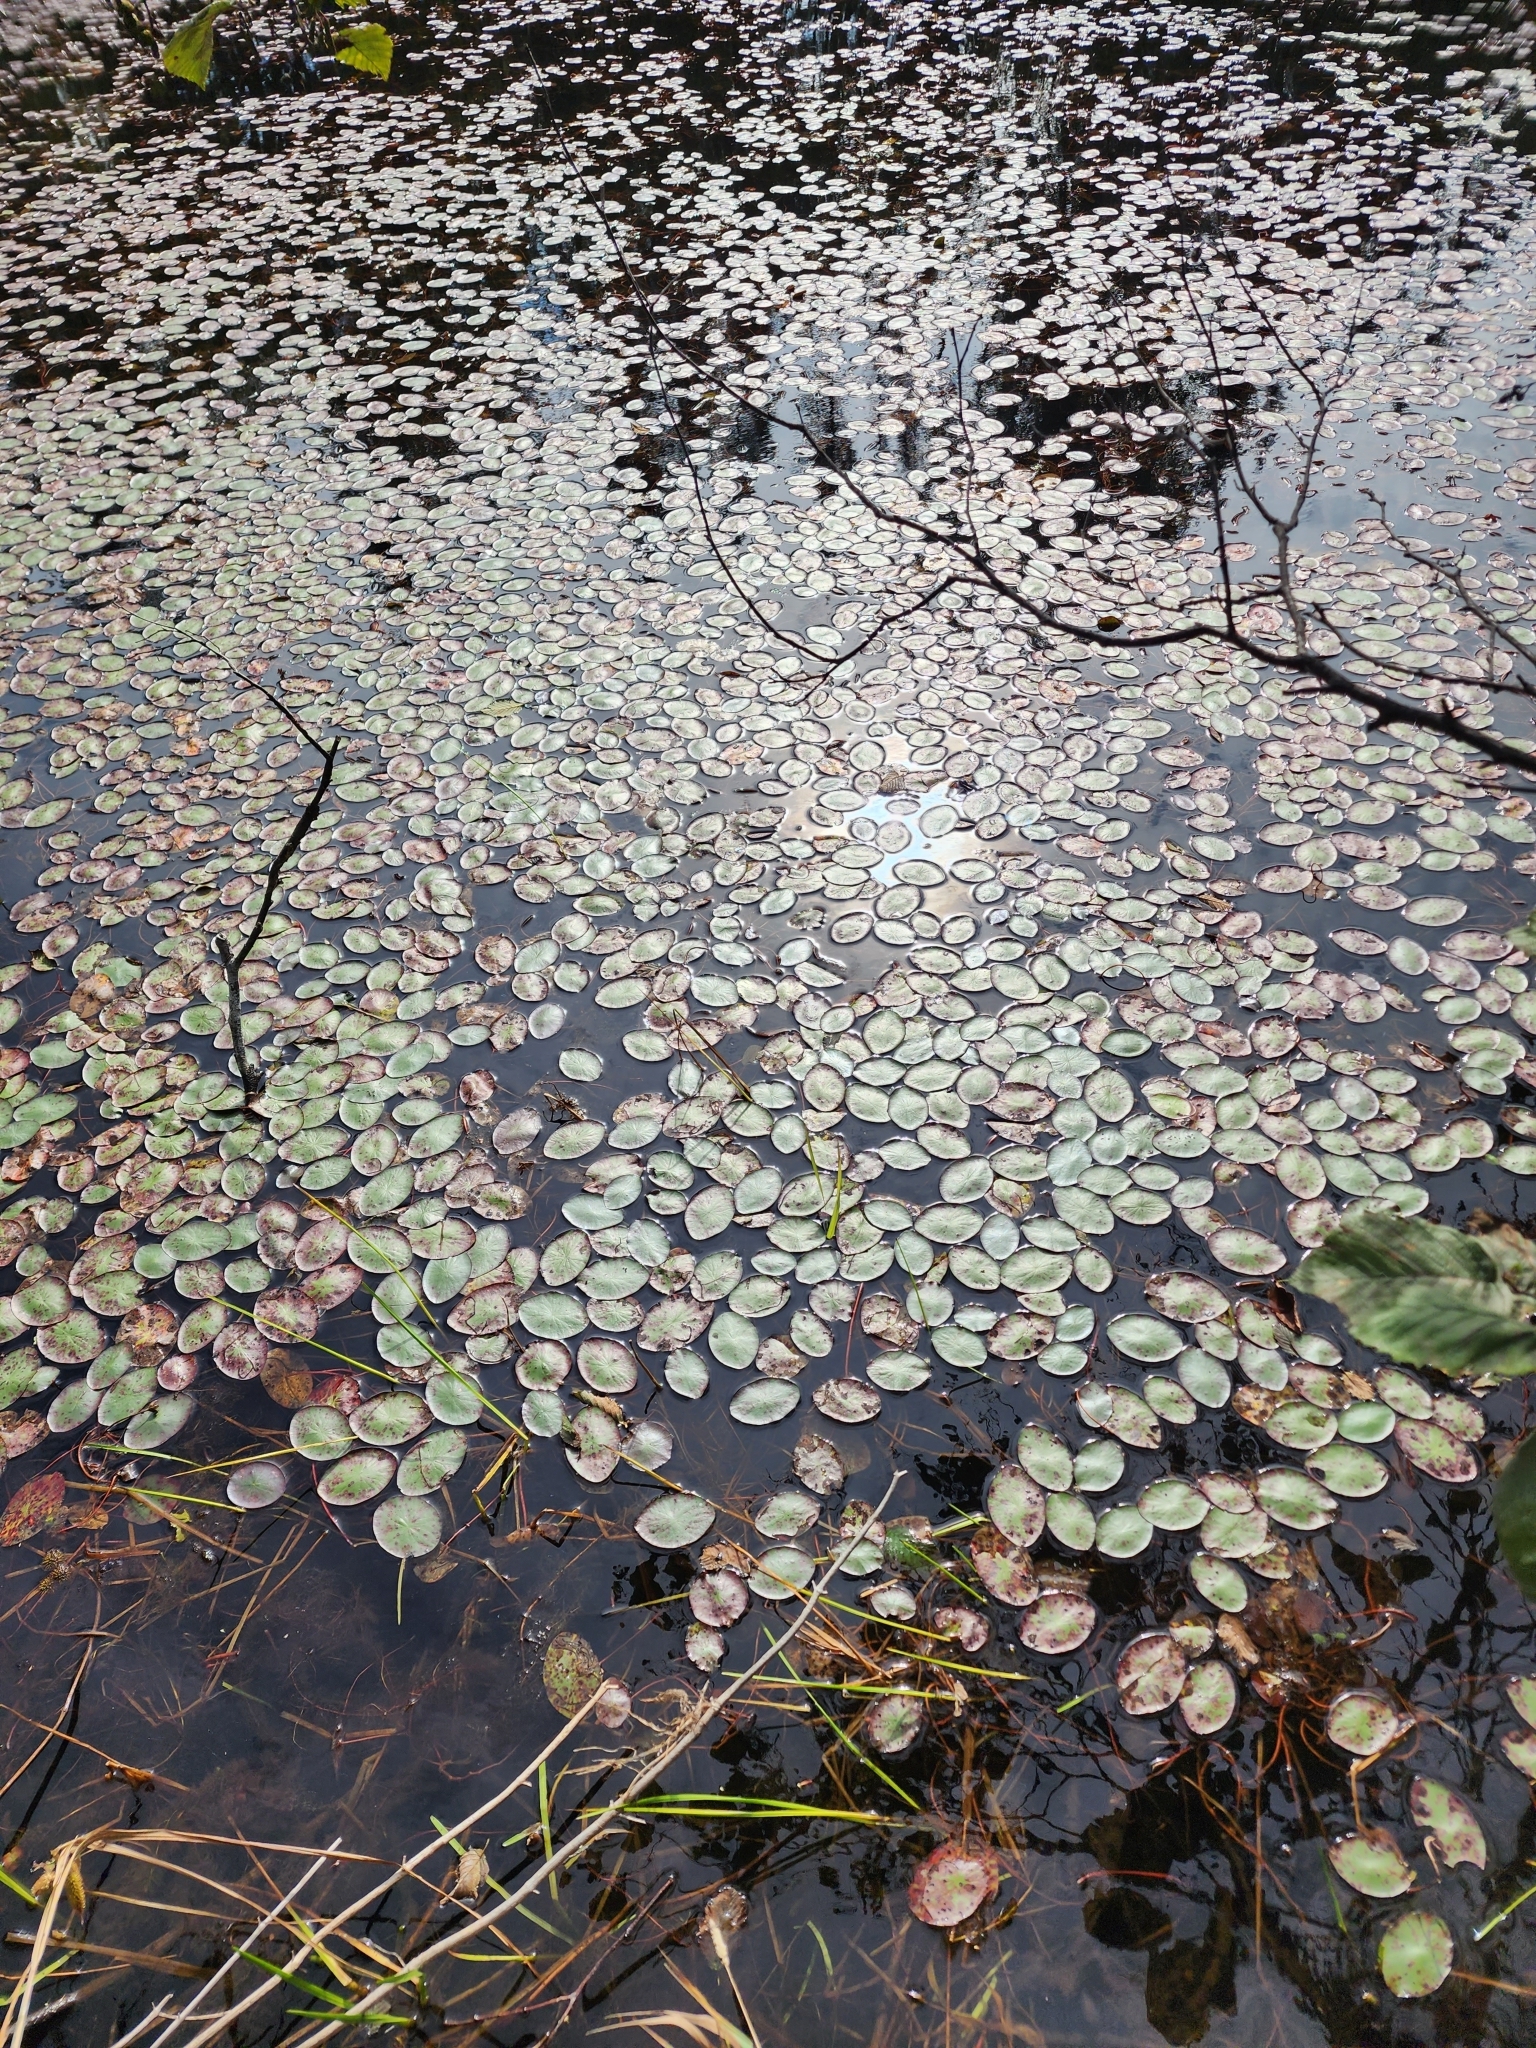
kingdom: Plantae
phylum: Tracheophyta
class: Magnoliopsida
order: Nymphaeales
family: Cabombaceae
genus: Brasenia
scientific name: Brasenia schreberi
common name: Water-shield
